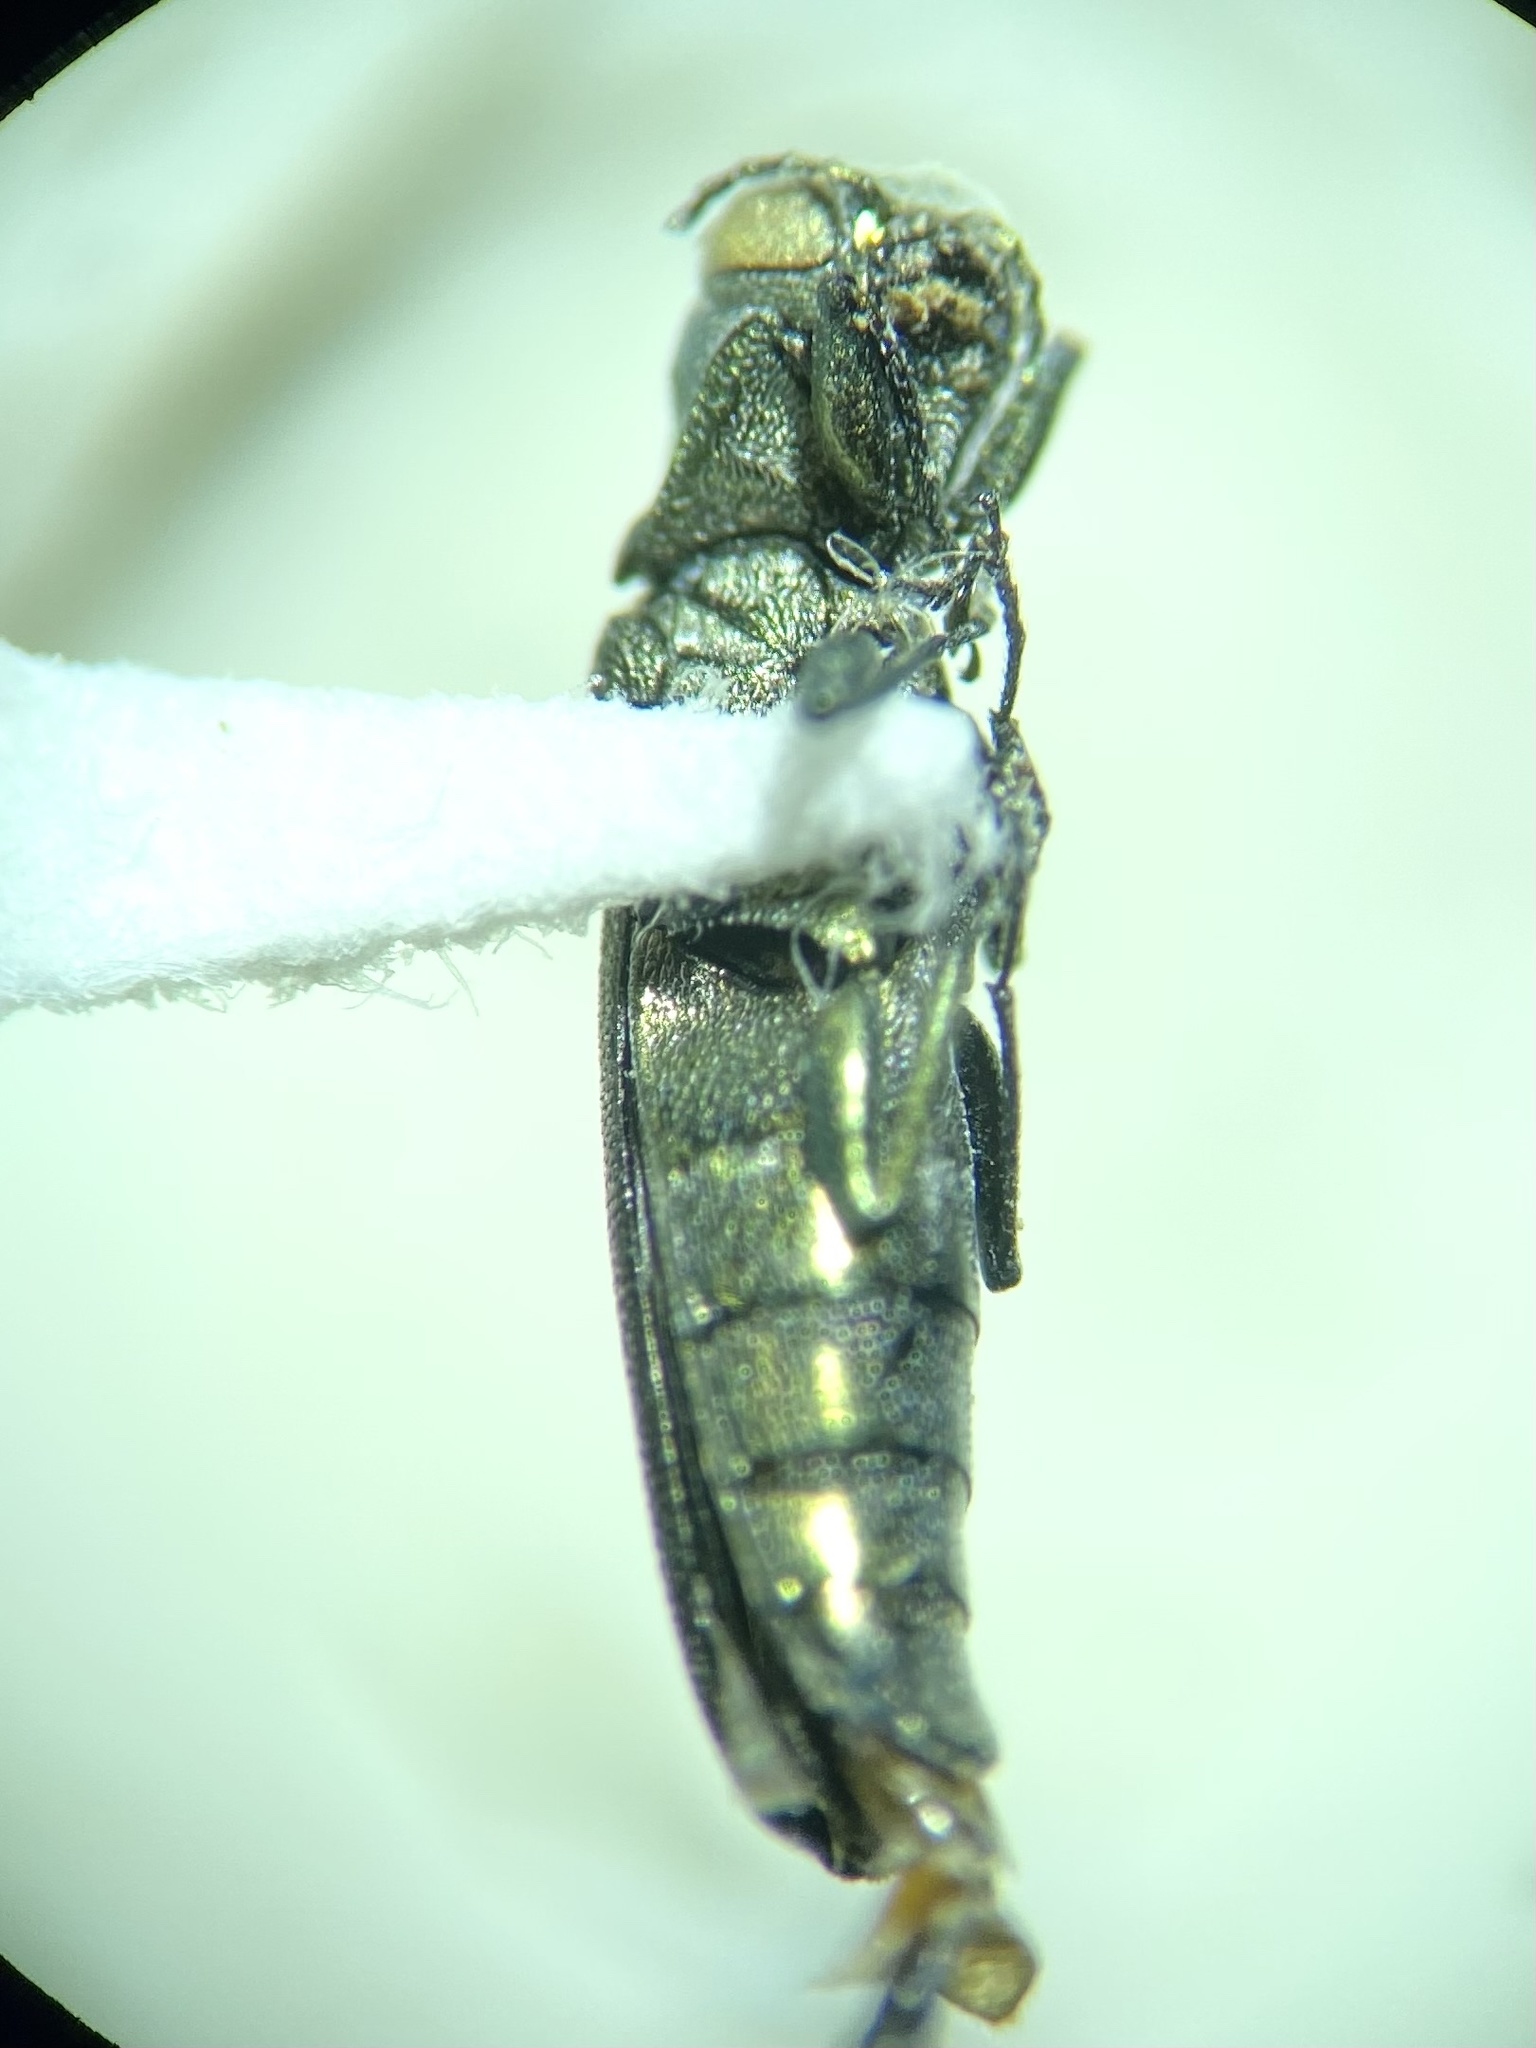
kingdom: Animalia
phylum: Arthropoda
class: Insecta
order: Coleoptera
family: Buprestidae
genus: Agrilus
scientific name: Agrilus otiosus
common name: Hickory agrilus
